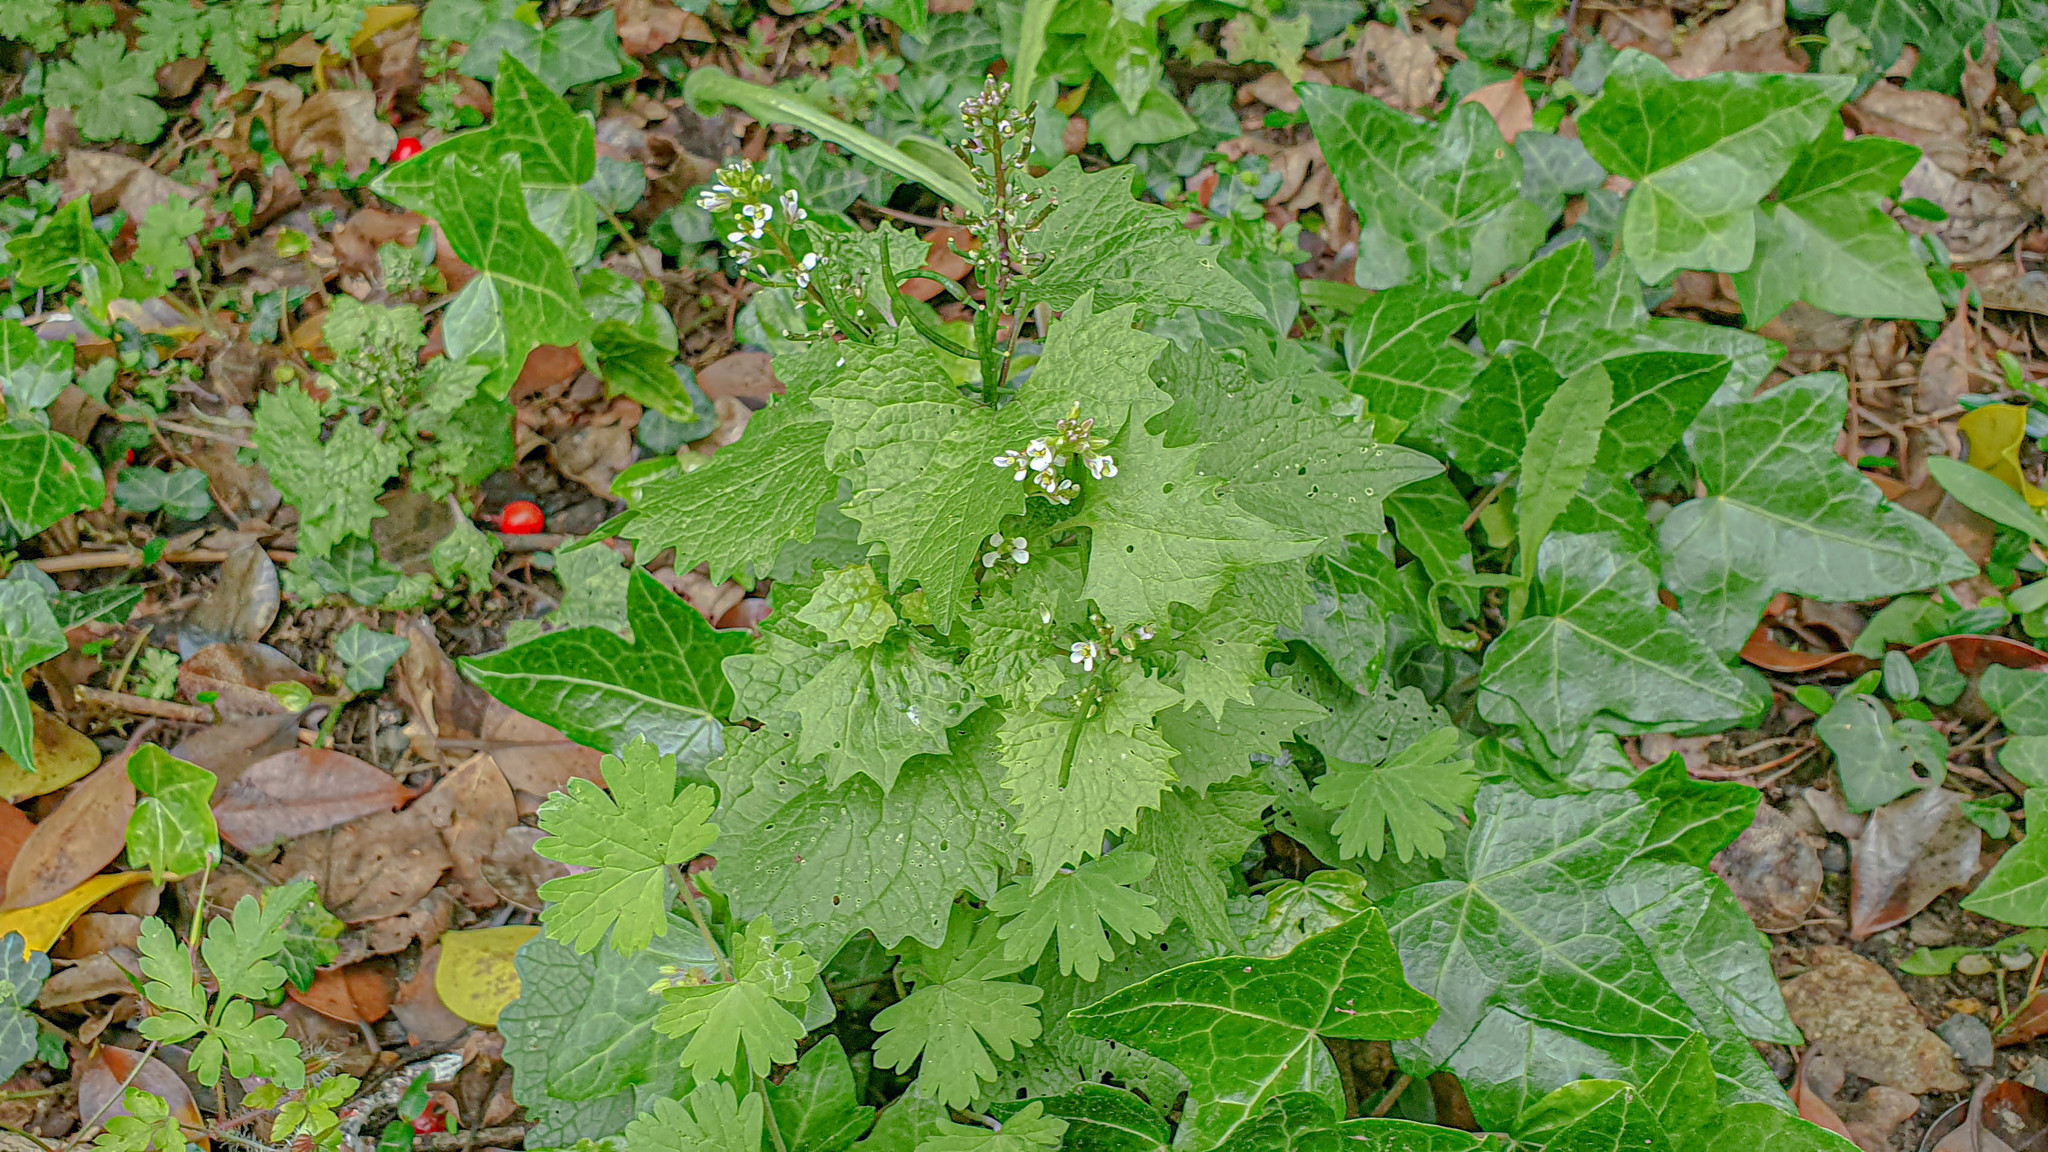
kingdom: Plantae
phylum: Tracheophyta
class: Magnoliopsida
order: Brassicales
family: Brassicaceae
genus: Alliaria
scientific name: Alliaria petiolata
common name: Garlic mustard
